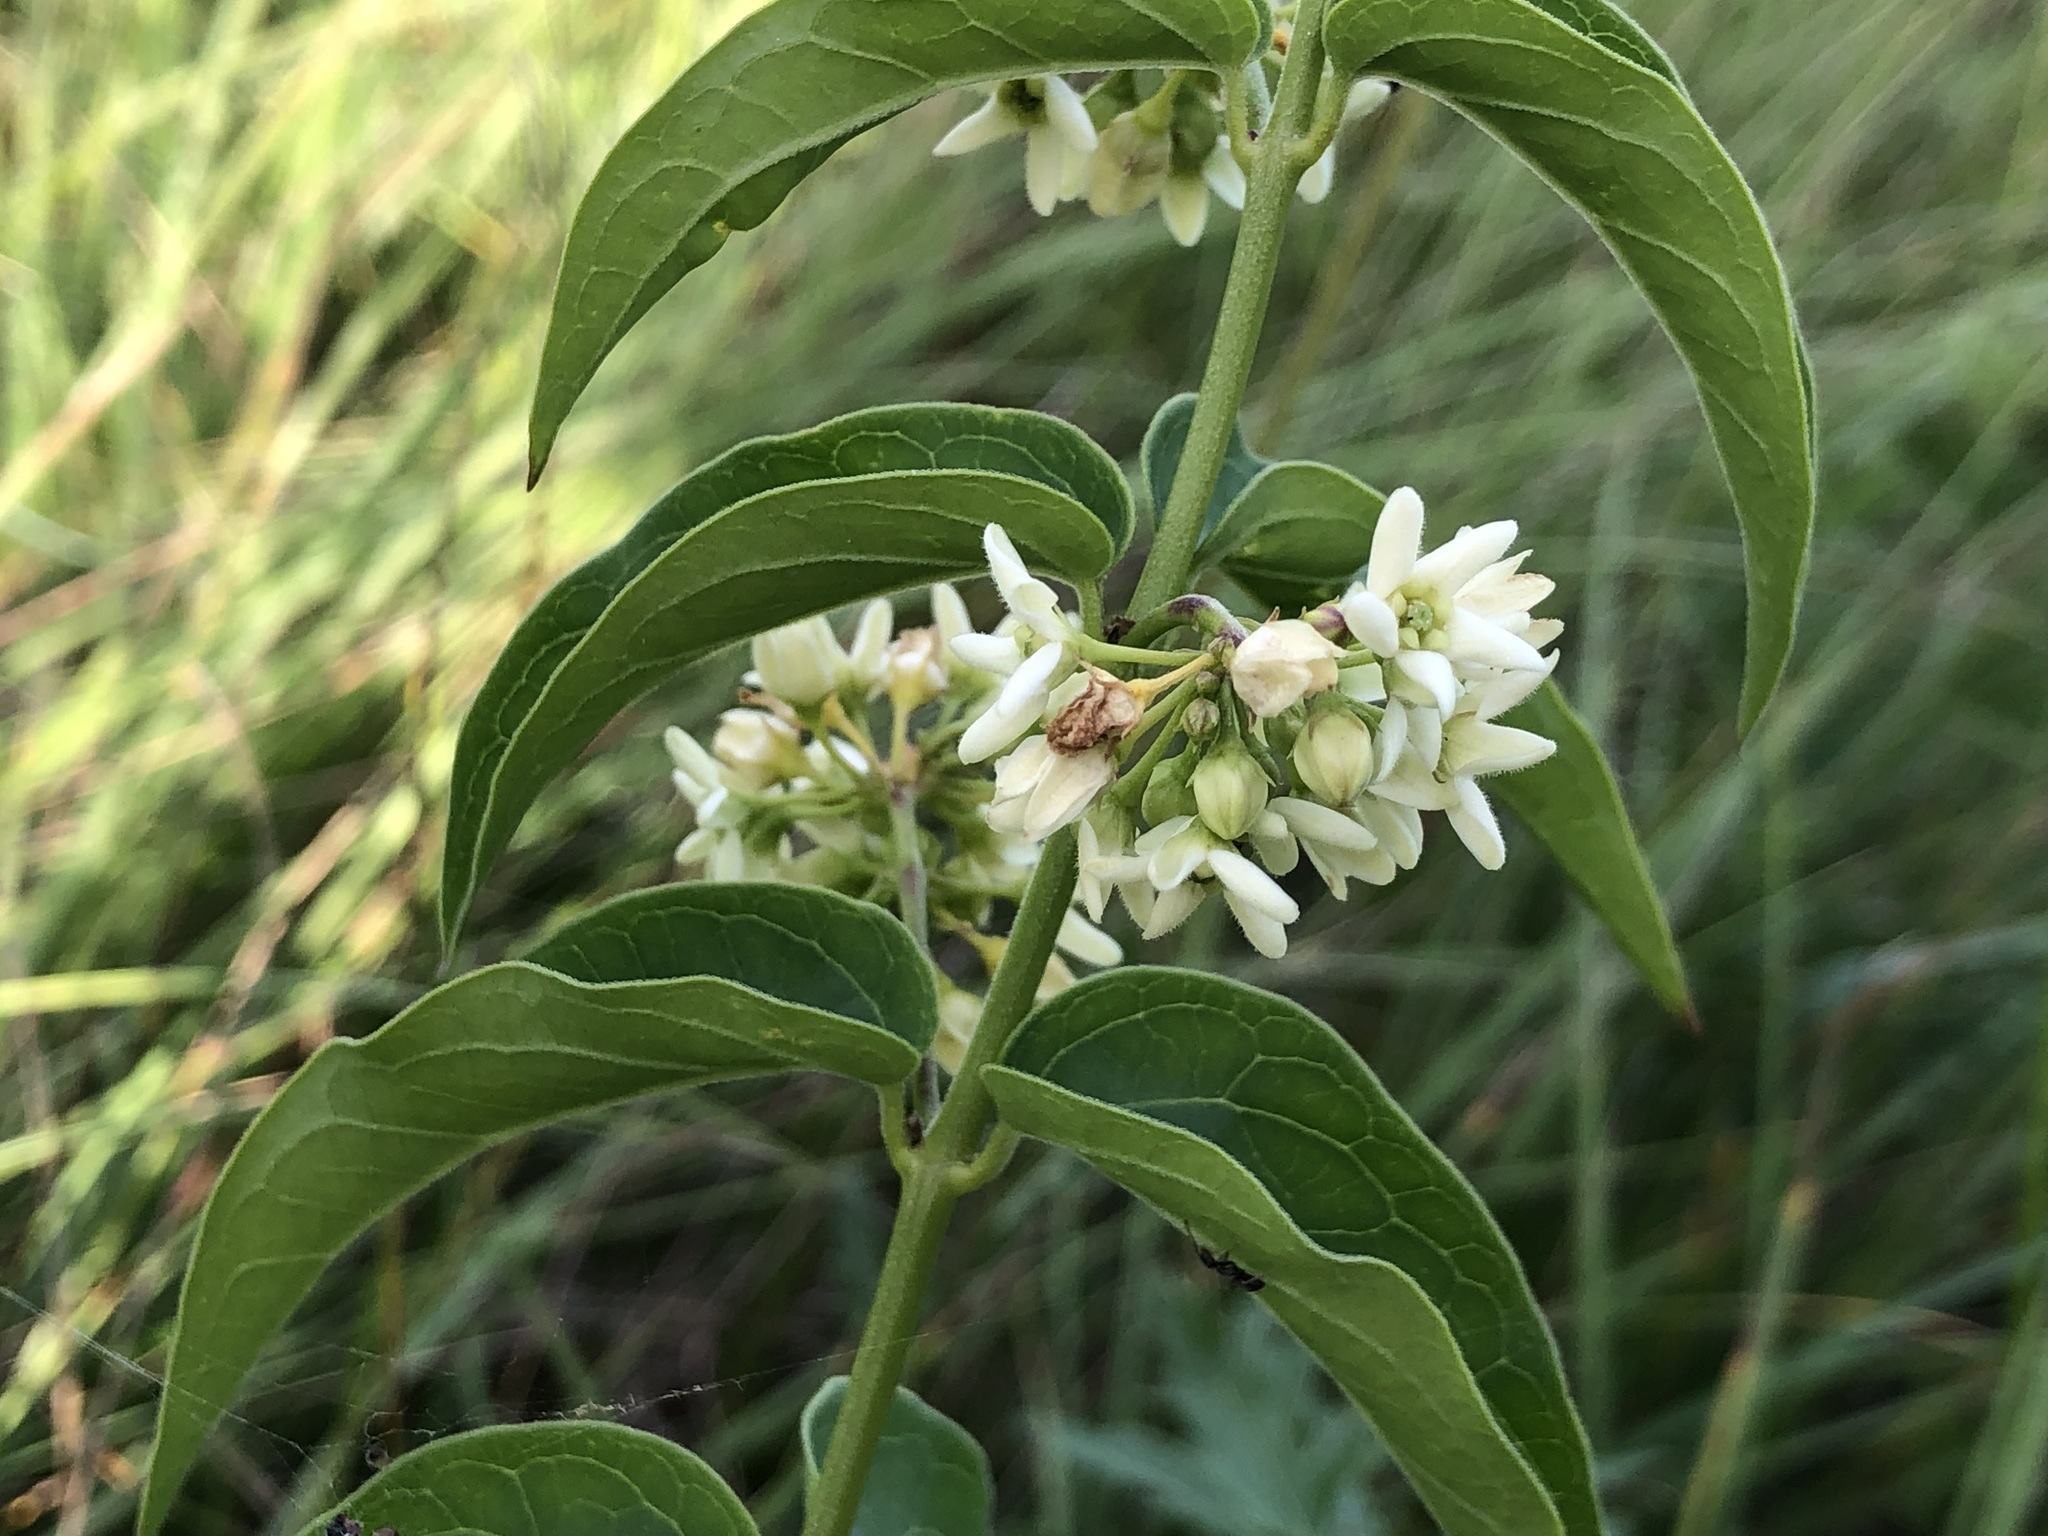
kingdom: Plantae
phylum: Tracheophyta
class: Magnoliopsida
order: Gentianales
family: Apocynaceae
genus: Vincetoxicum
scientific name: Vincetoxicum hirundinaria
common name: White swallowwort
